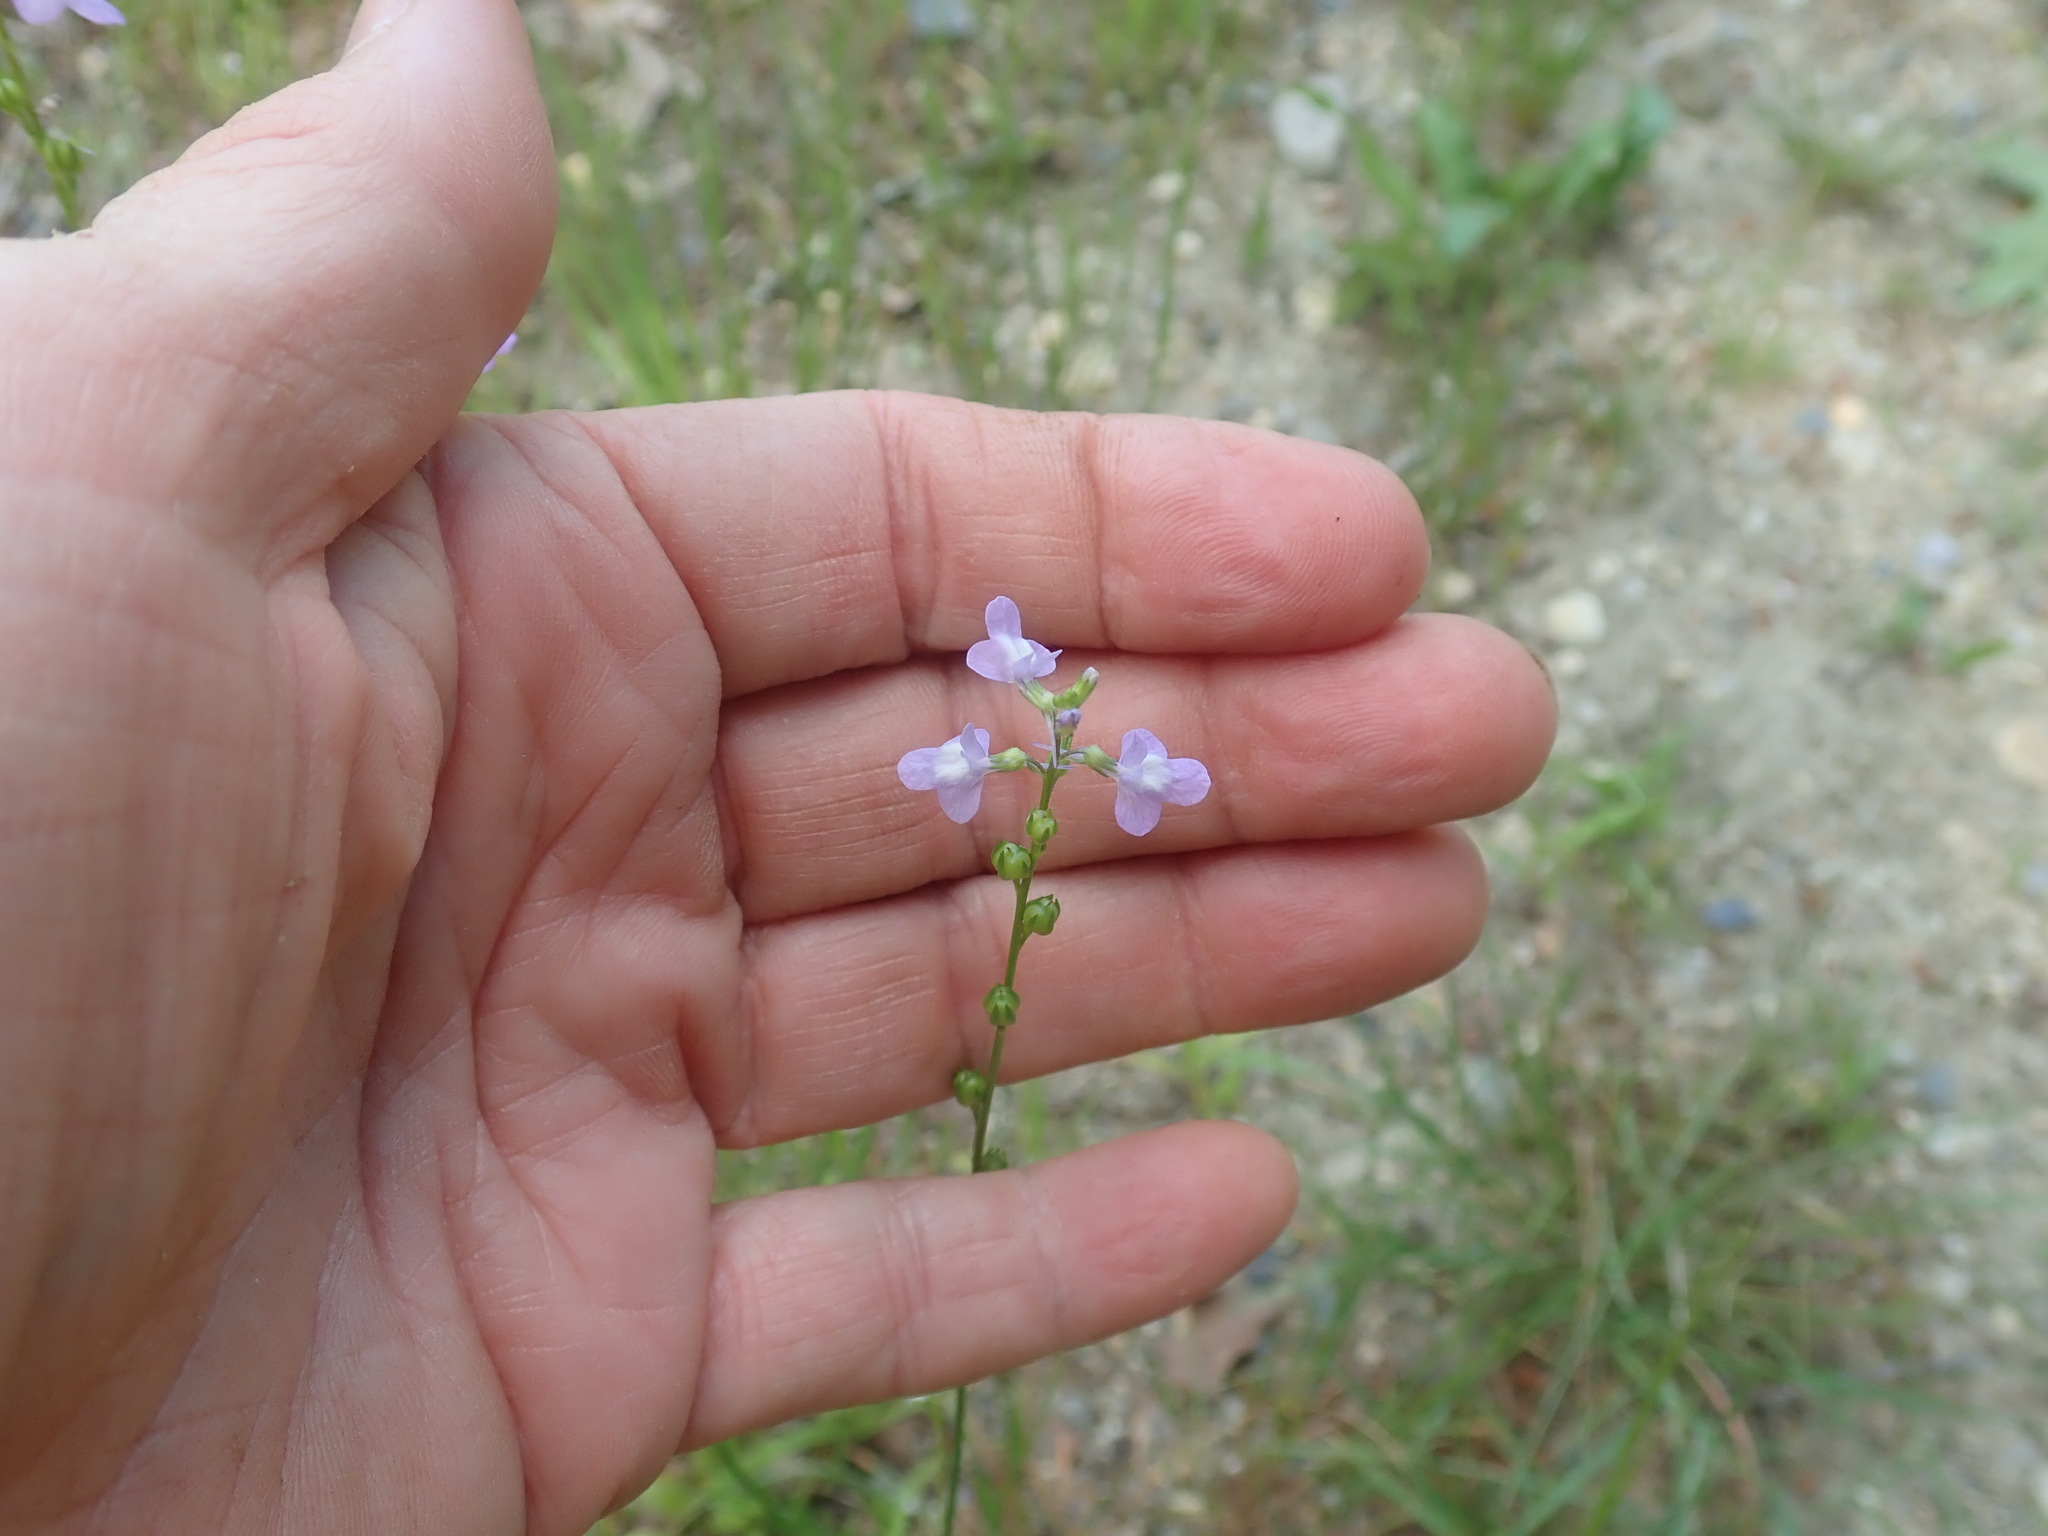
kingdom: Plantae
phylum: Tracheophyta
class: Magnoliopsida
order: Lamiales
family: Plantaginaceae
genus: Nuttallanthus
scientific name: Nuttallanthus canadensis
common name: Blue toadflax
